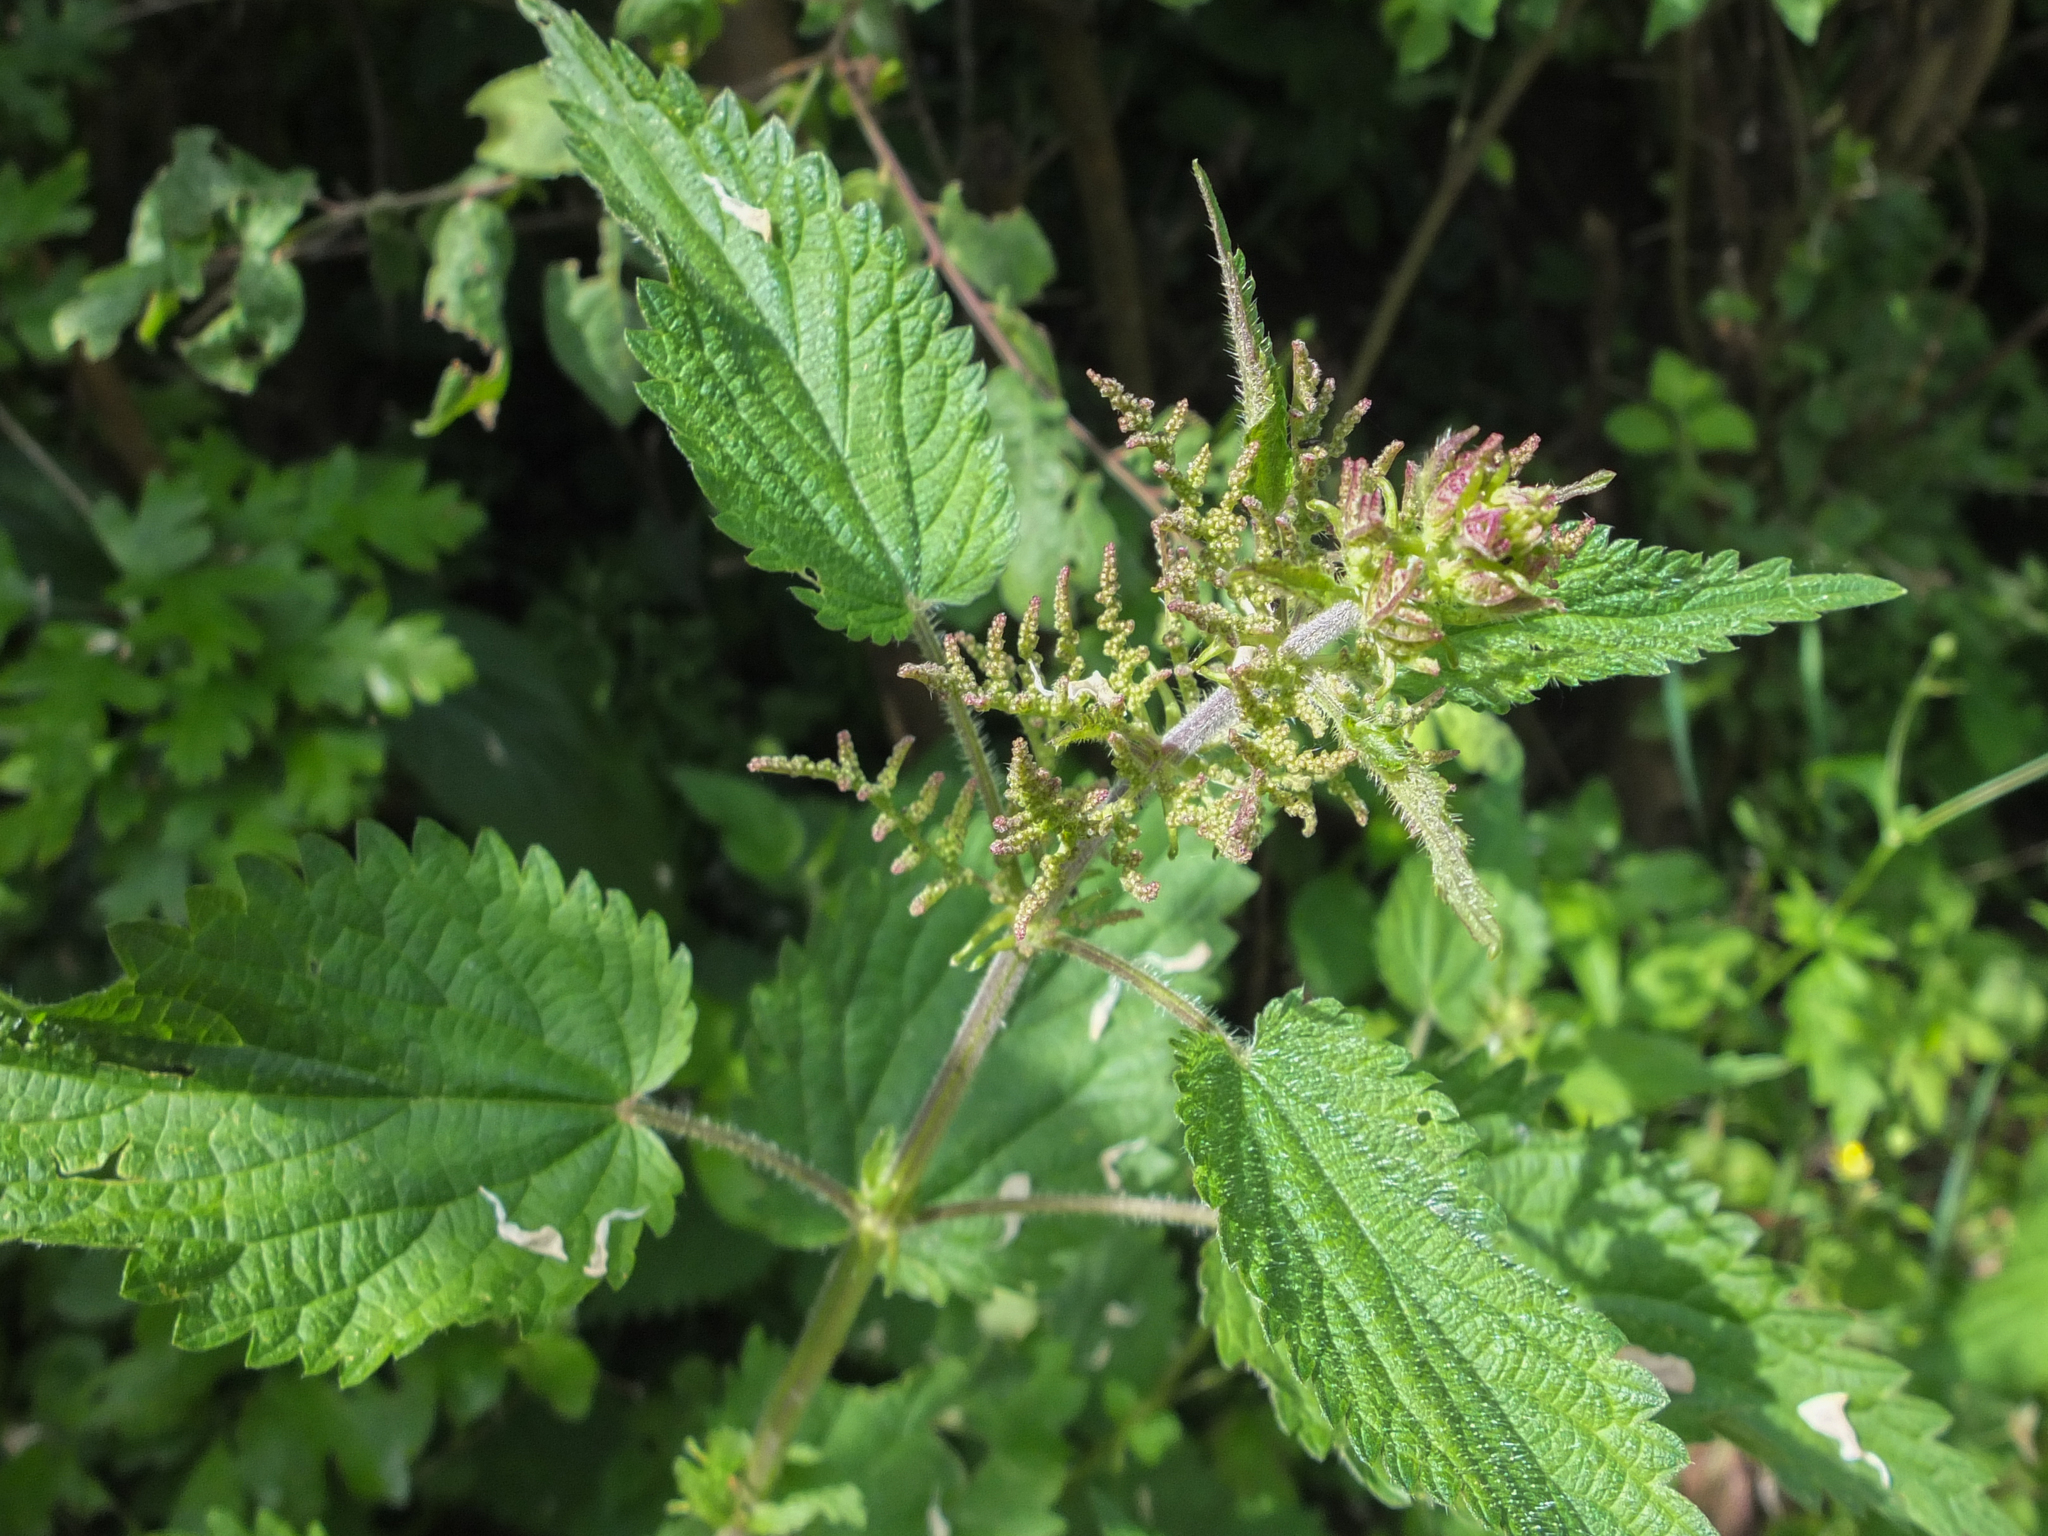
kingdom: Plantae
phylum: Tracheophyta
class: Magnoliopsida
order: Rosales
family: Urticaceae
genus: Urtica
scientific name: Urtica dioica
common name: Common nettle
